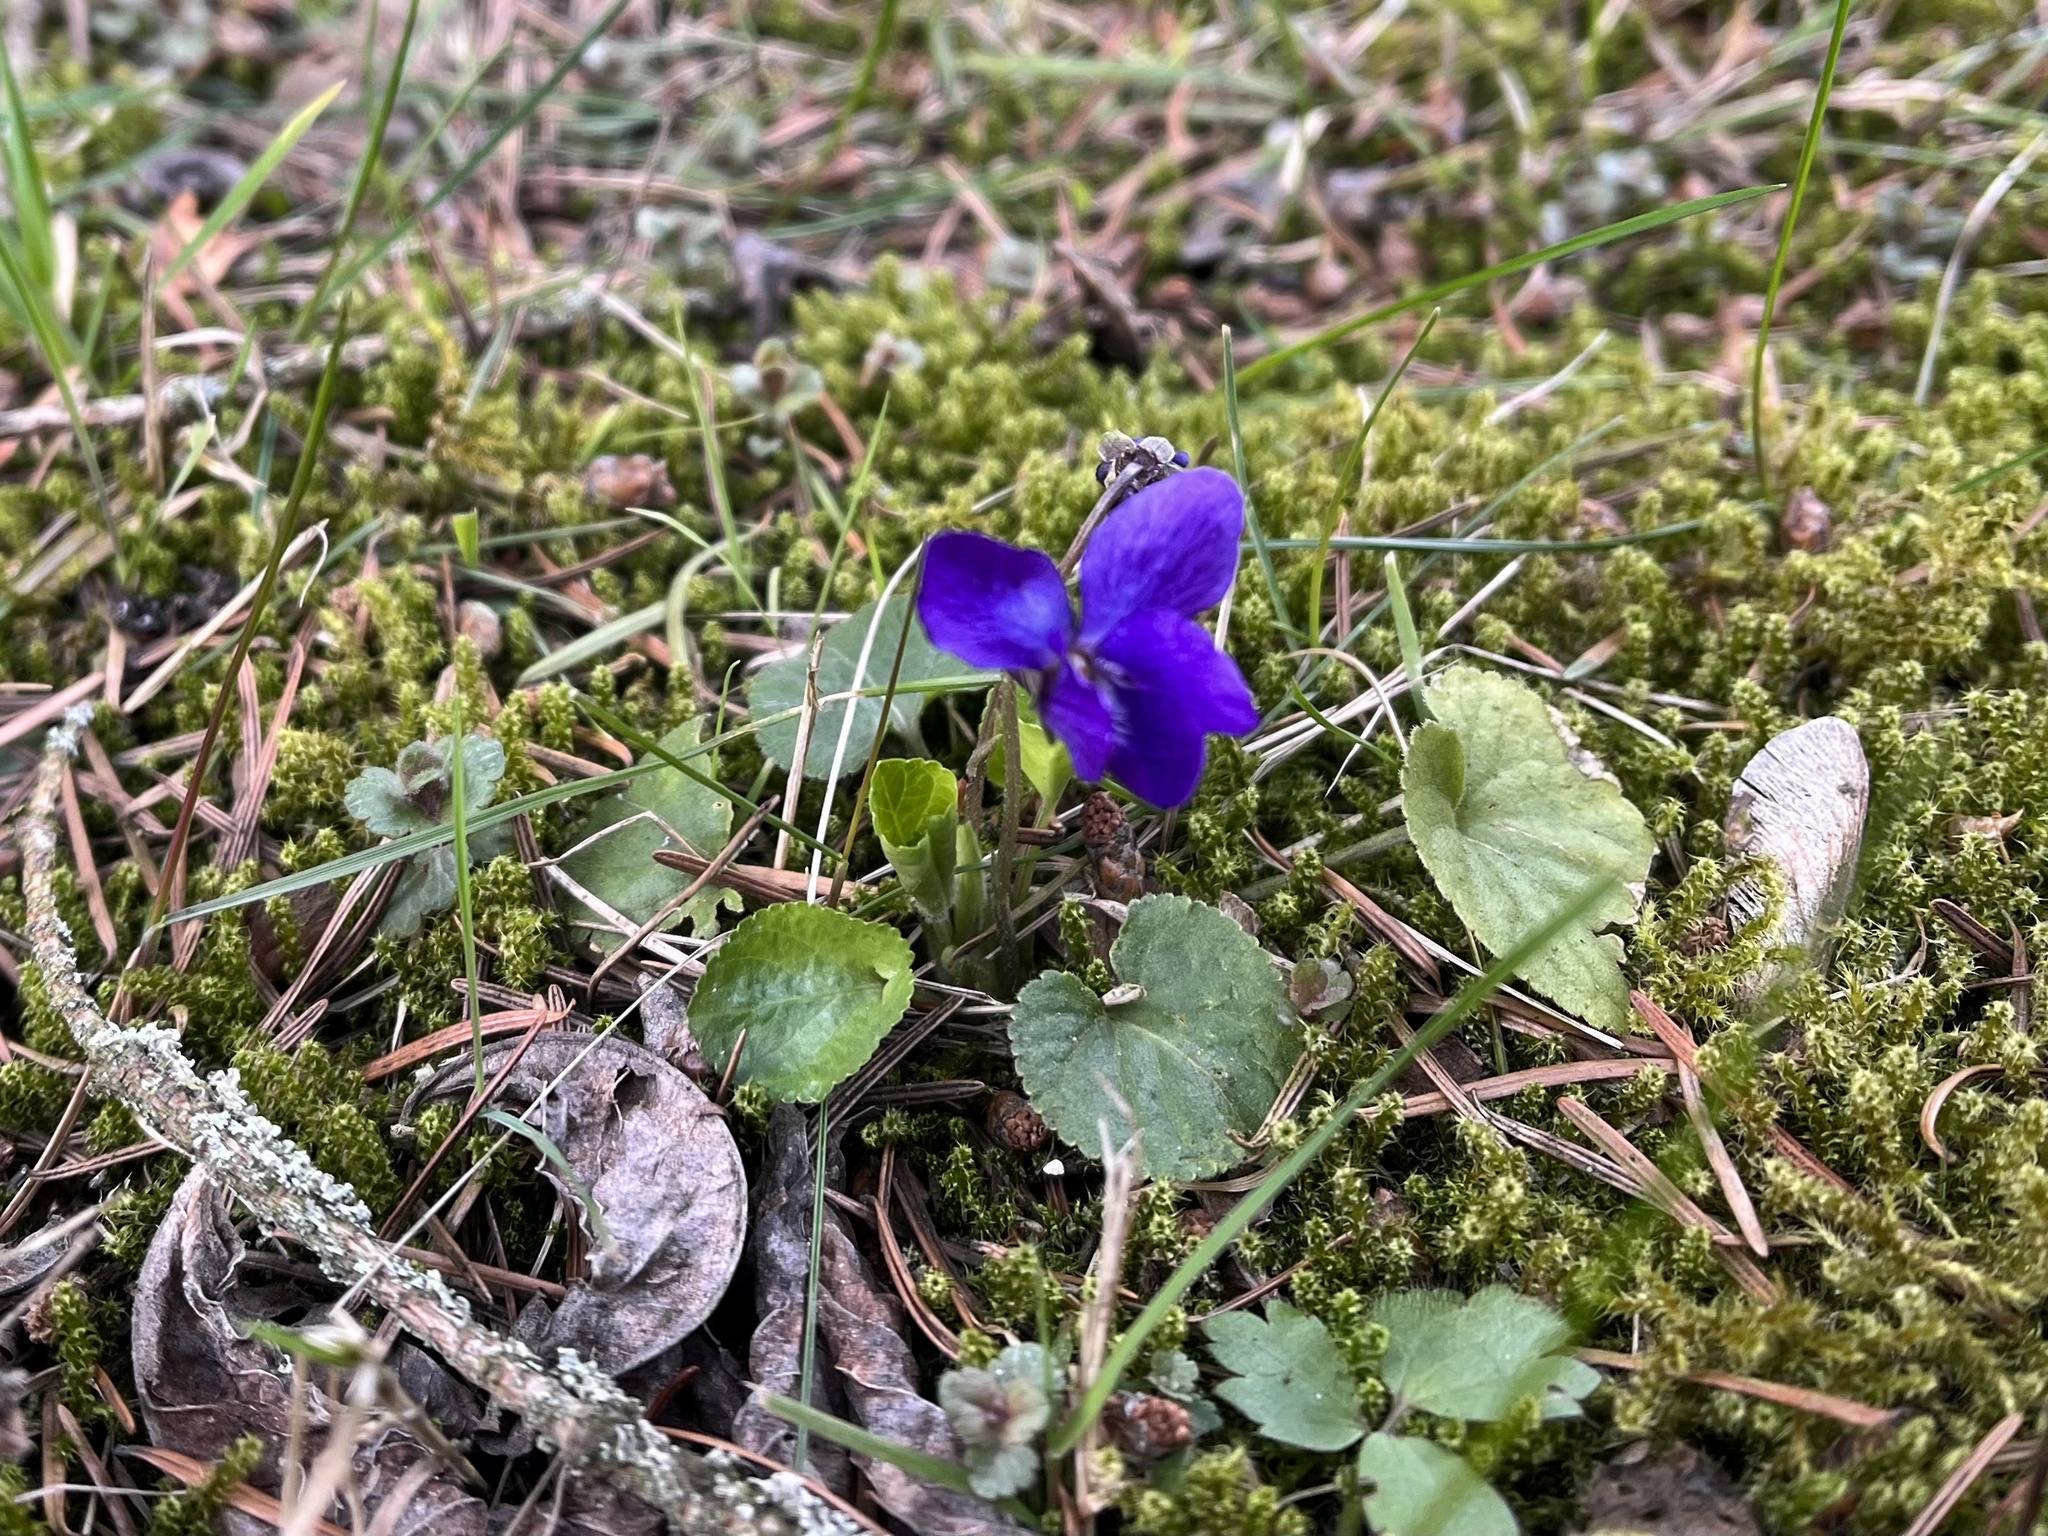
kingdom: Plantae
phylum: Tracheophyta
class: Magnoliopsida
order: Malpighiales
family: Violaceae
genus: Viola
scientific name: Viola odorata
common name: Sweet violet
